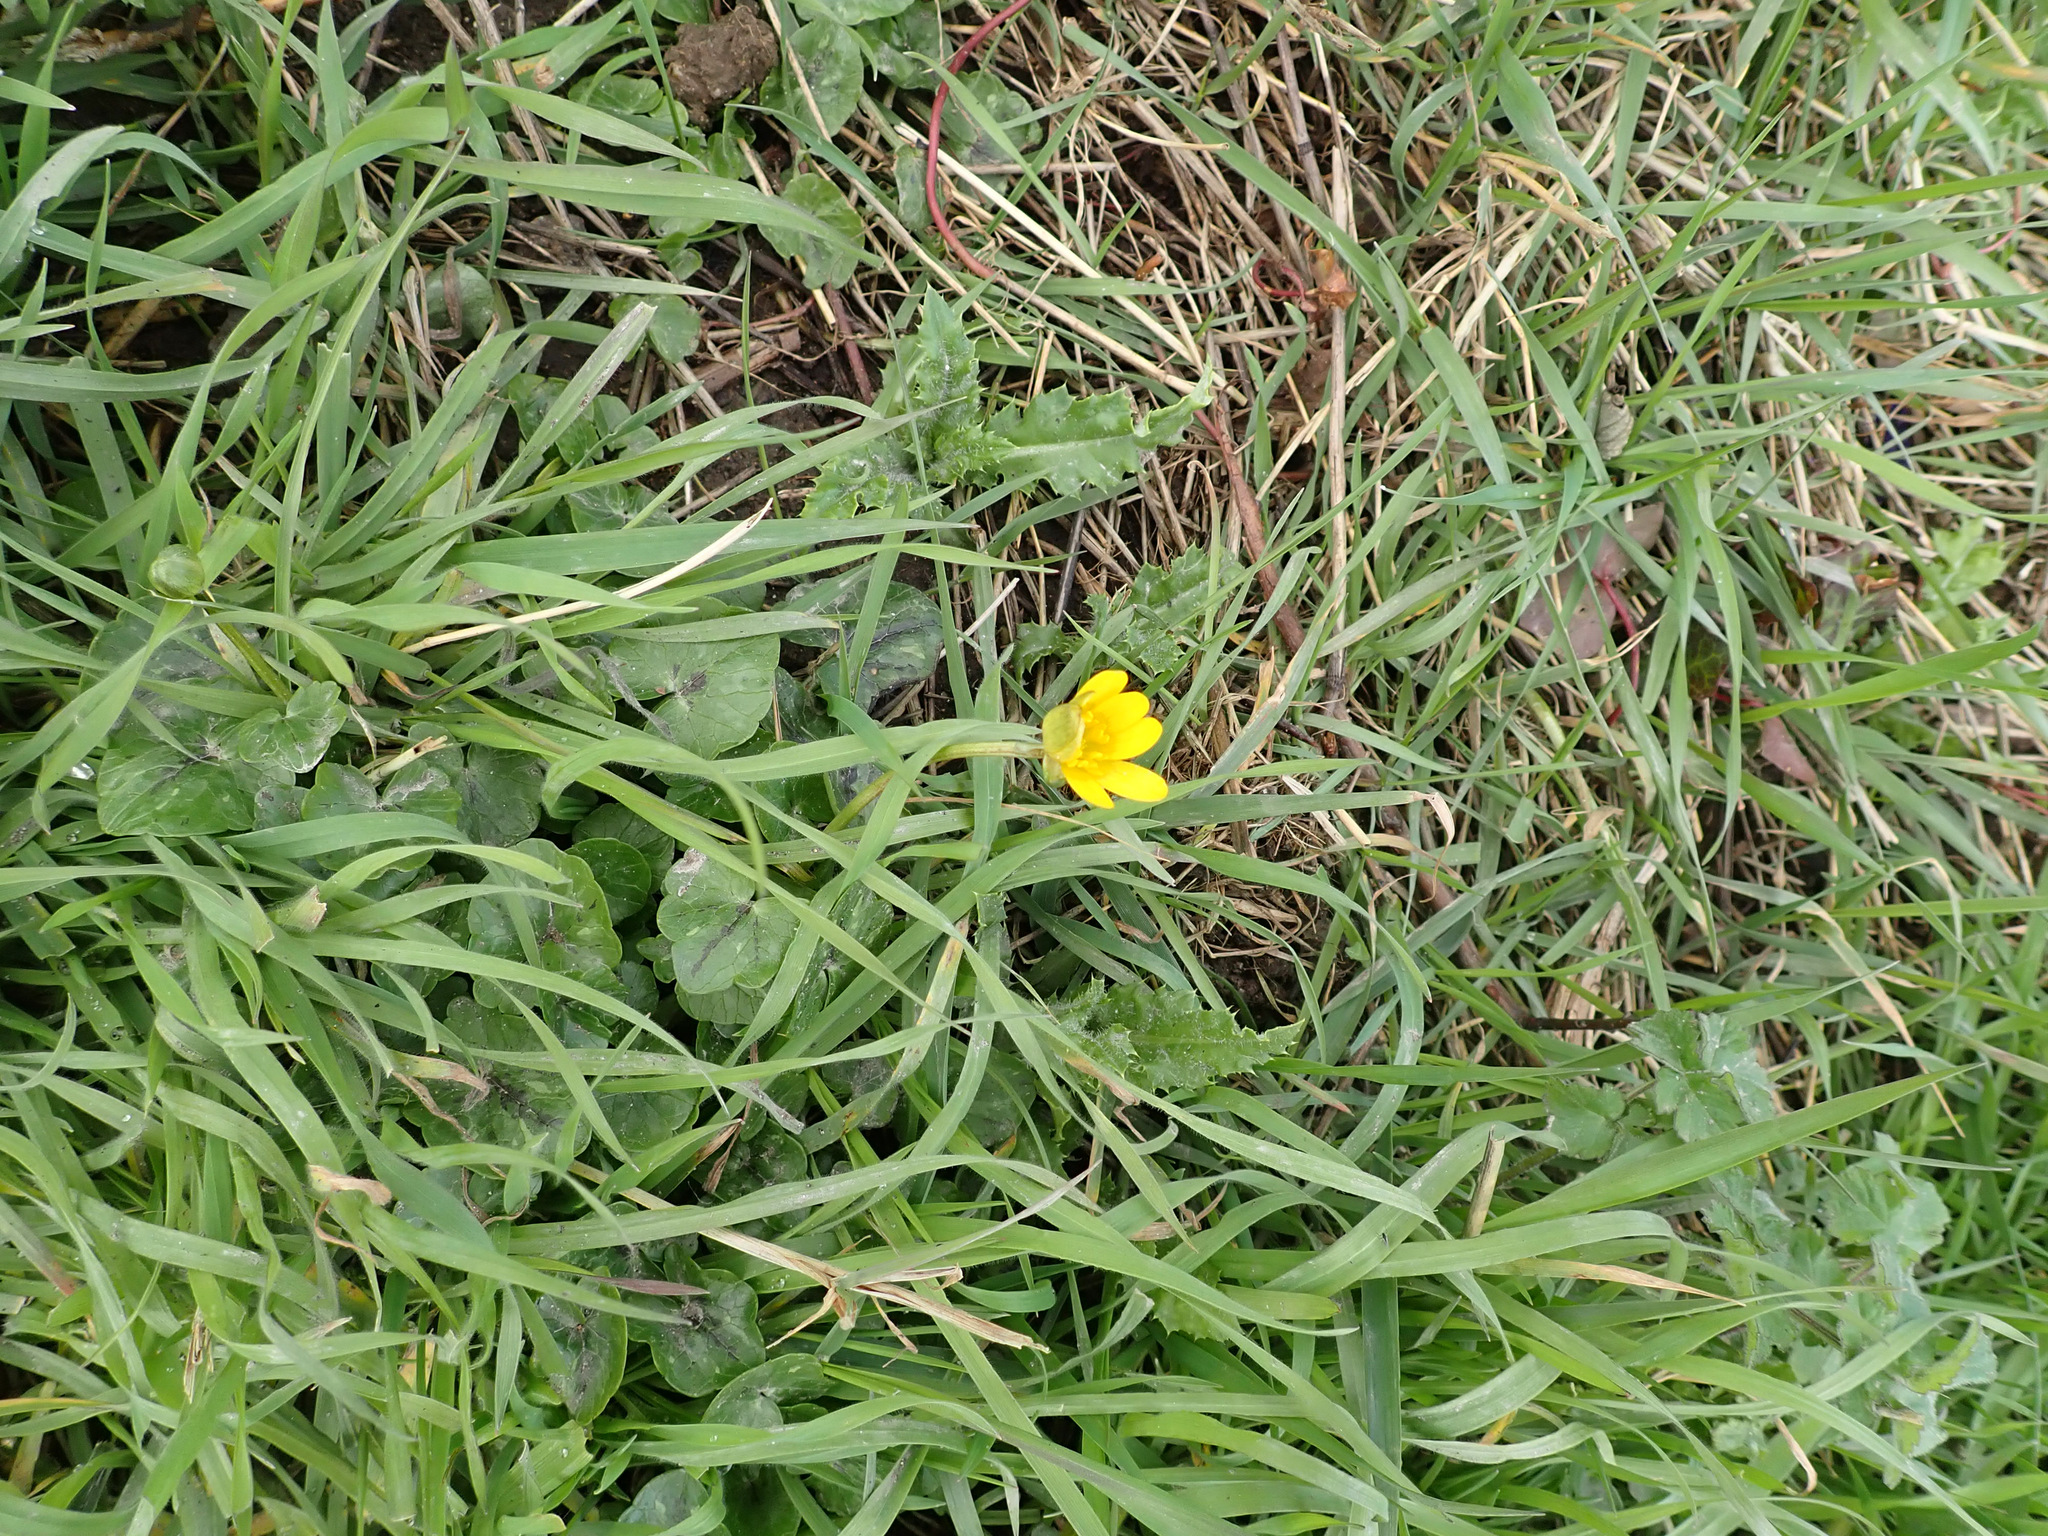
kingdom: Plantae
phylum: Tracheophyta
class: Magnoliopsida
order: Ranunculales
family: Ranunculaceae
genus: Ficaria
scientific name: Ficaria verna
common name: Lesser celandine
